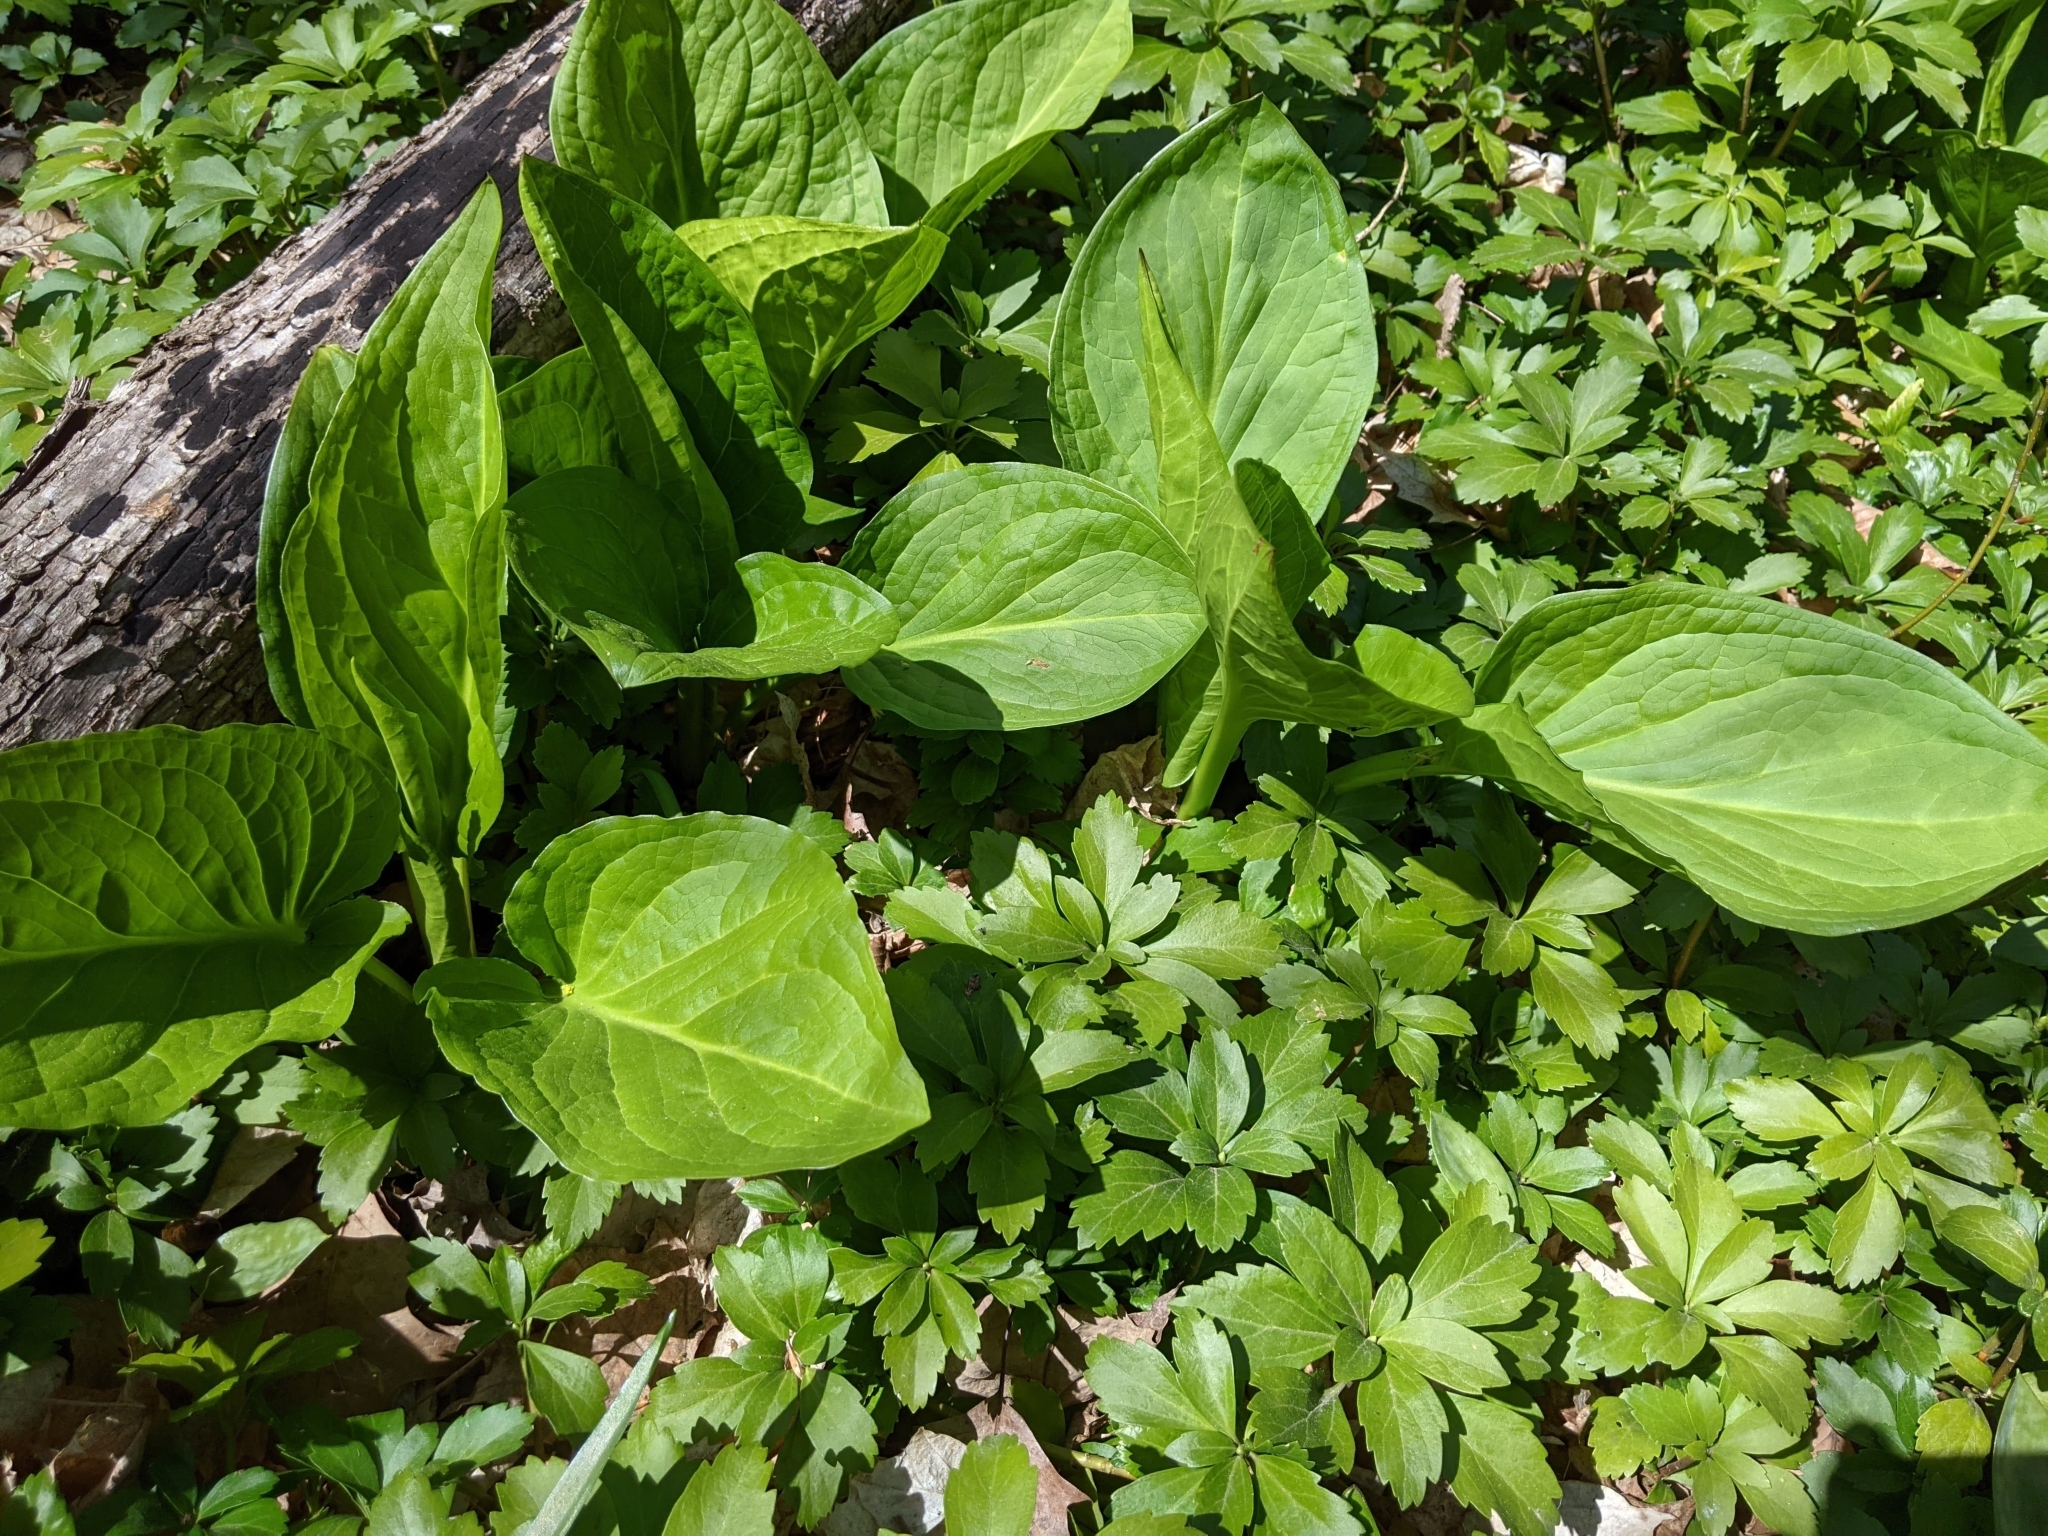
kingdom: Plantae
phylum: Tracheophyta
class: Liliopsida
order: Alismatales
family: Araceae
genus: Symplocarpus
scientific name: Symplocarpus foetidus
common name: Eastern skunk cabbage
